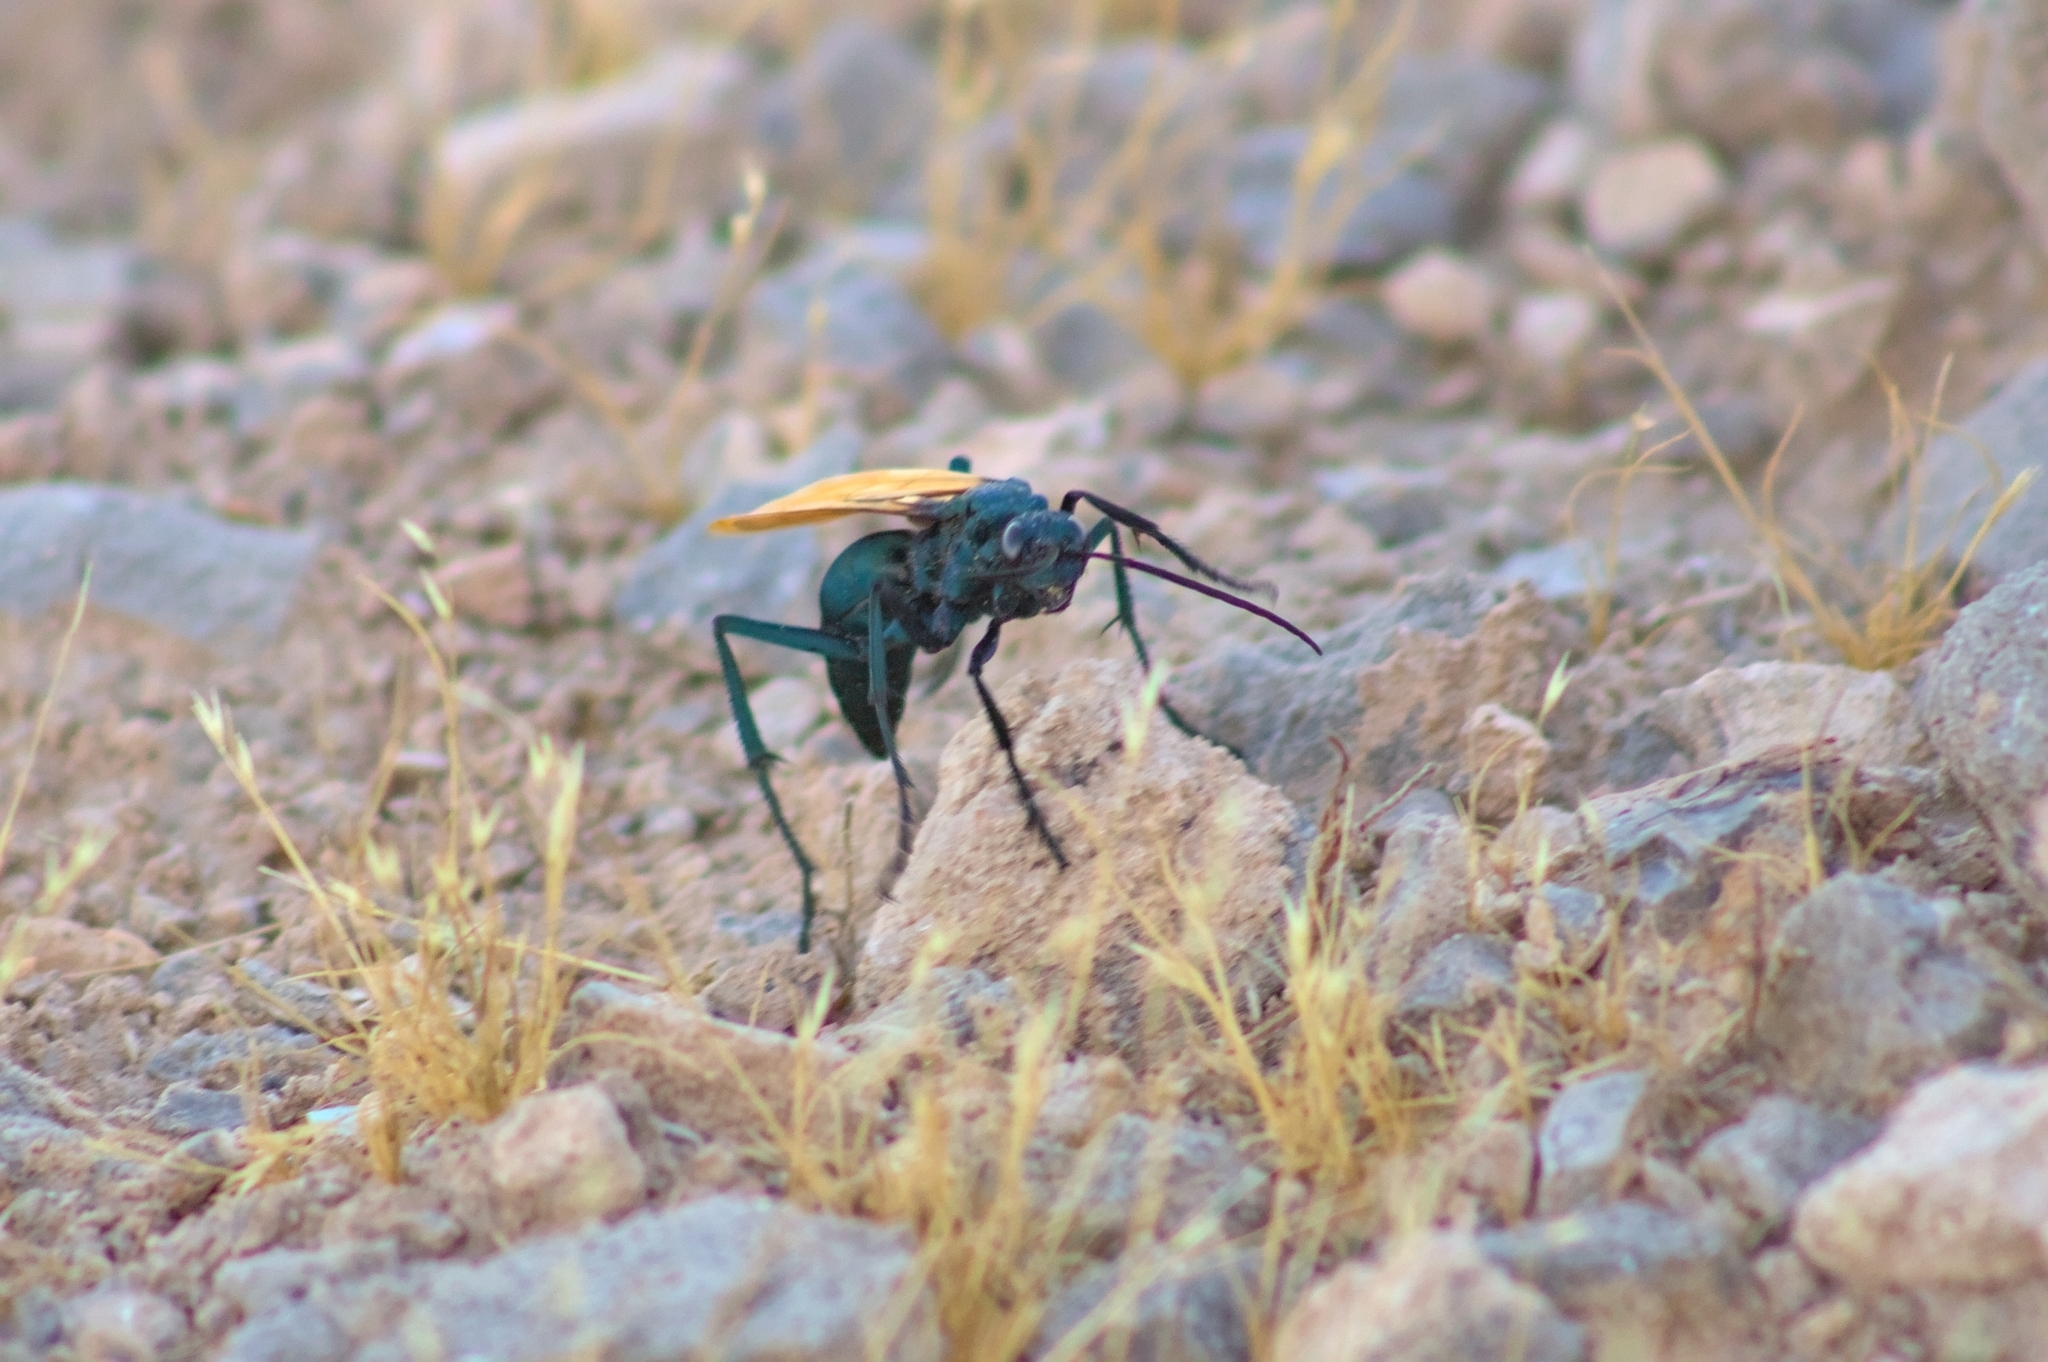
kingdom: Animalia
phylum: Arthropoda
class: Insecta
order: Hymenoptera
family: Pompilidae
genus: Pepsis
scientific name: Pepsis thisbe
